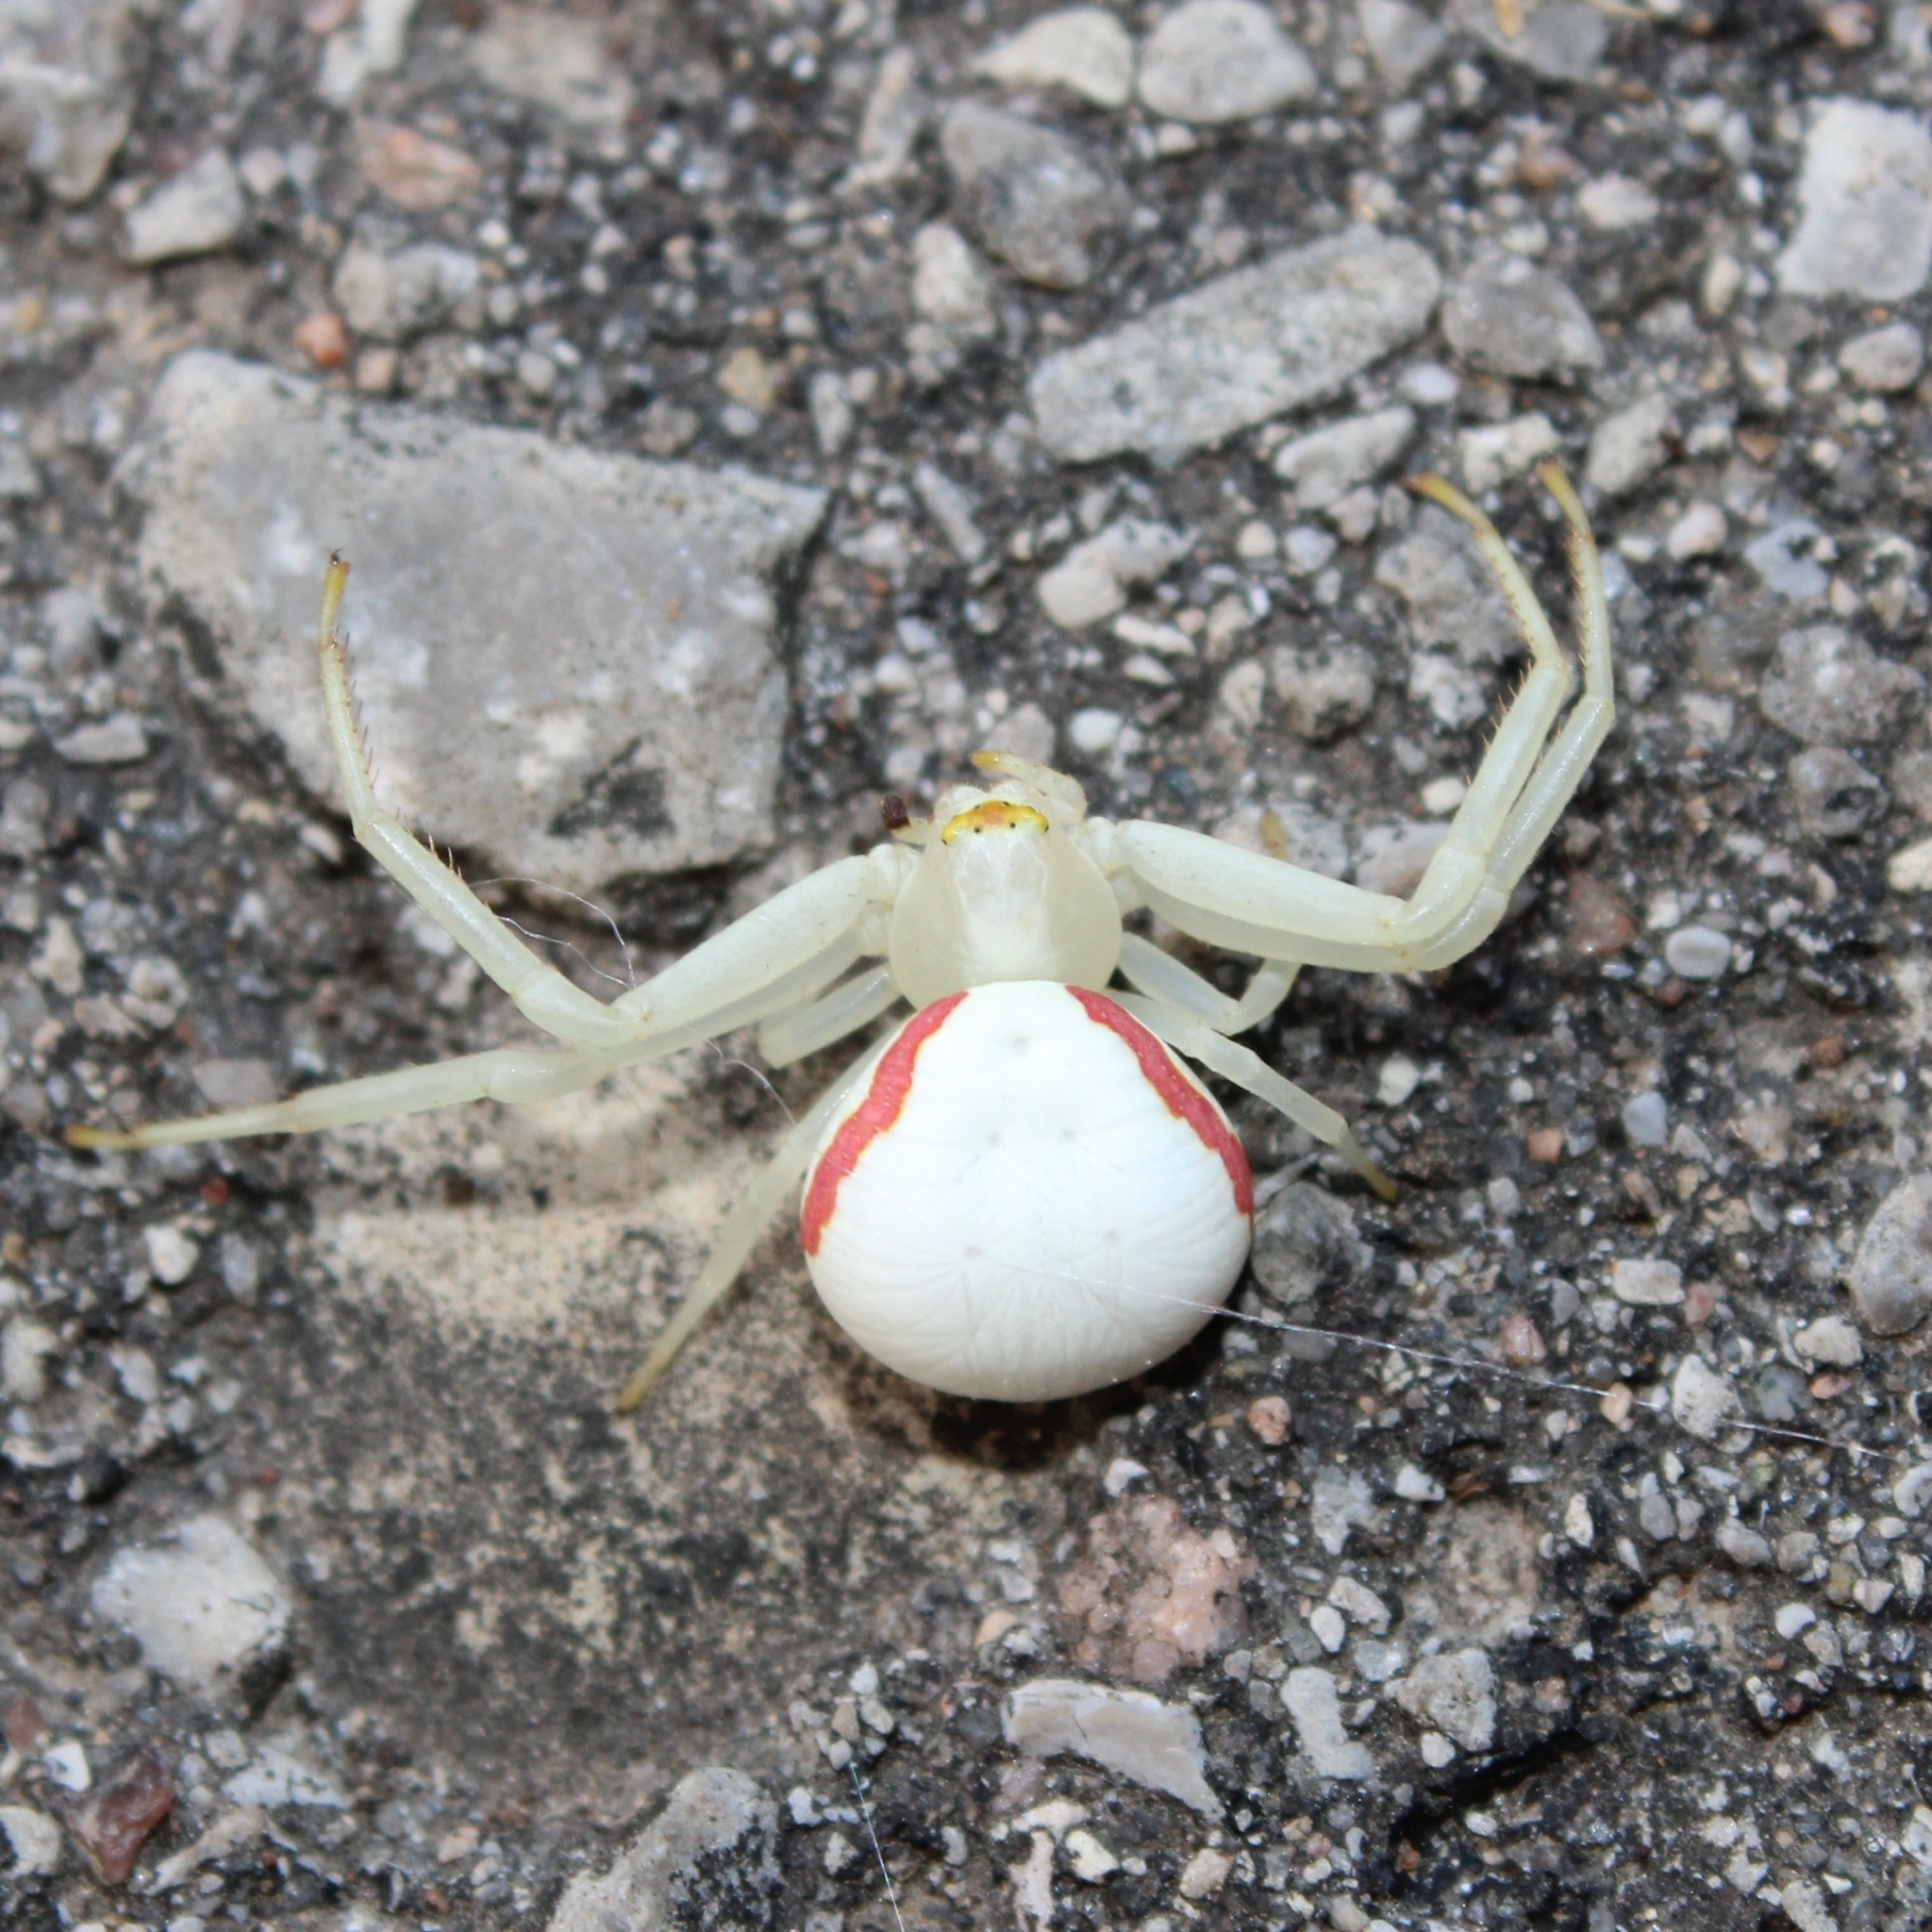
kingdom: Animalia
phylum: Arthropoda
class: Arachnida
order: Araneae
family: Thomisidae
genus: Misumena
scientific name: Misumena vatia
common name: Goldenrod crab spider
